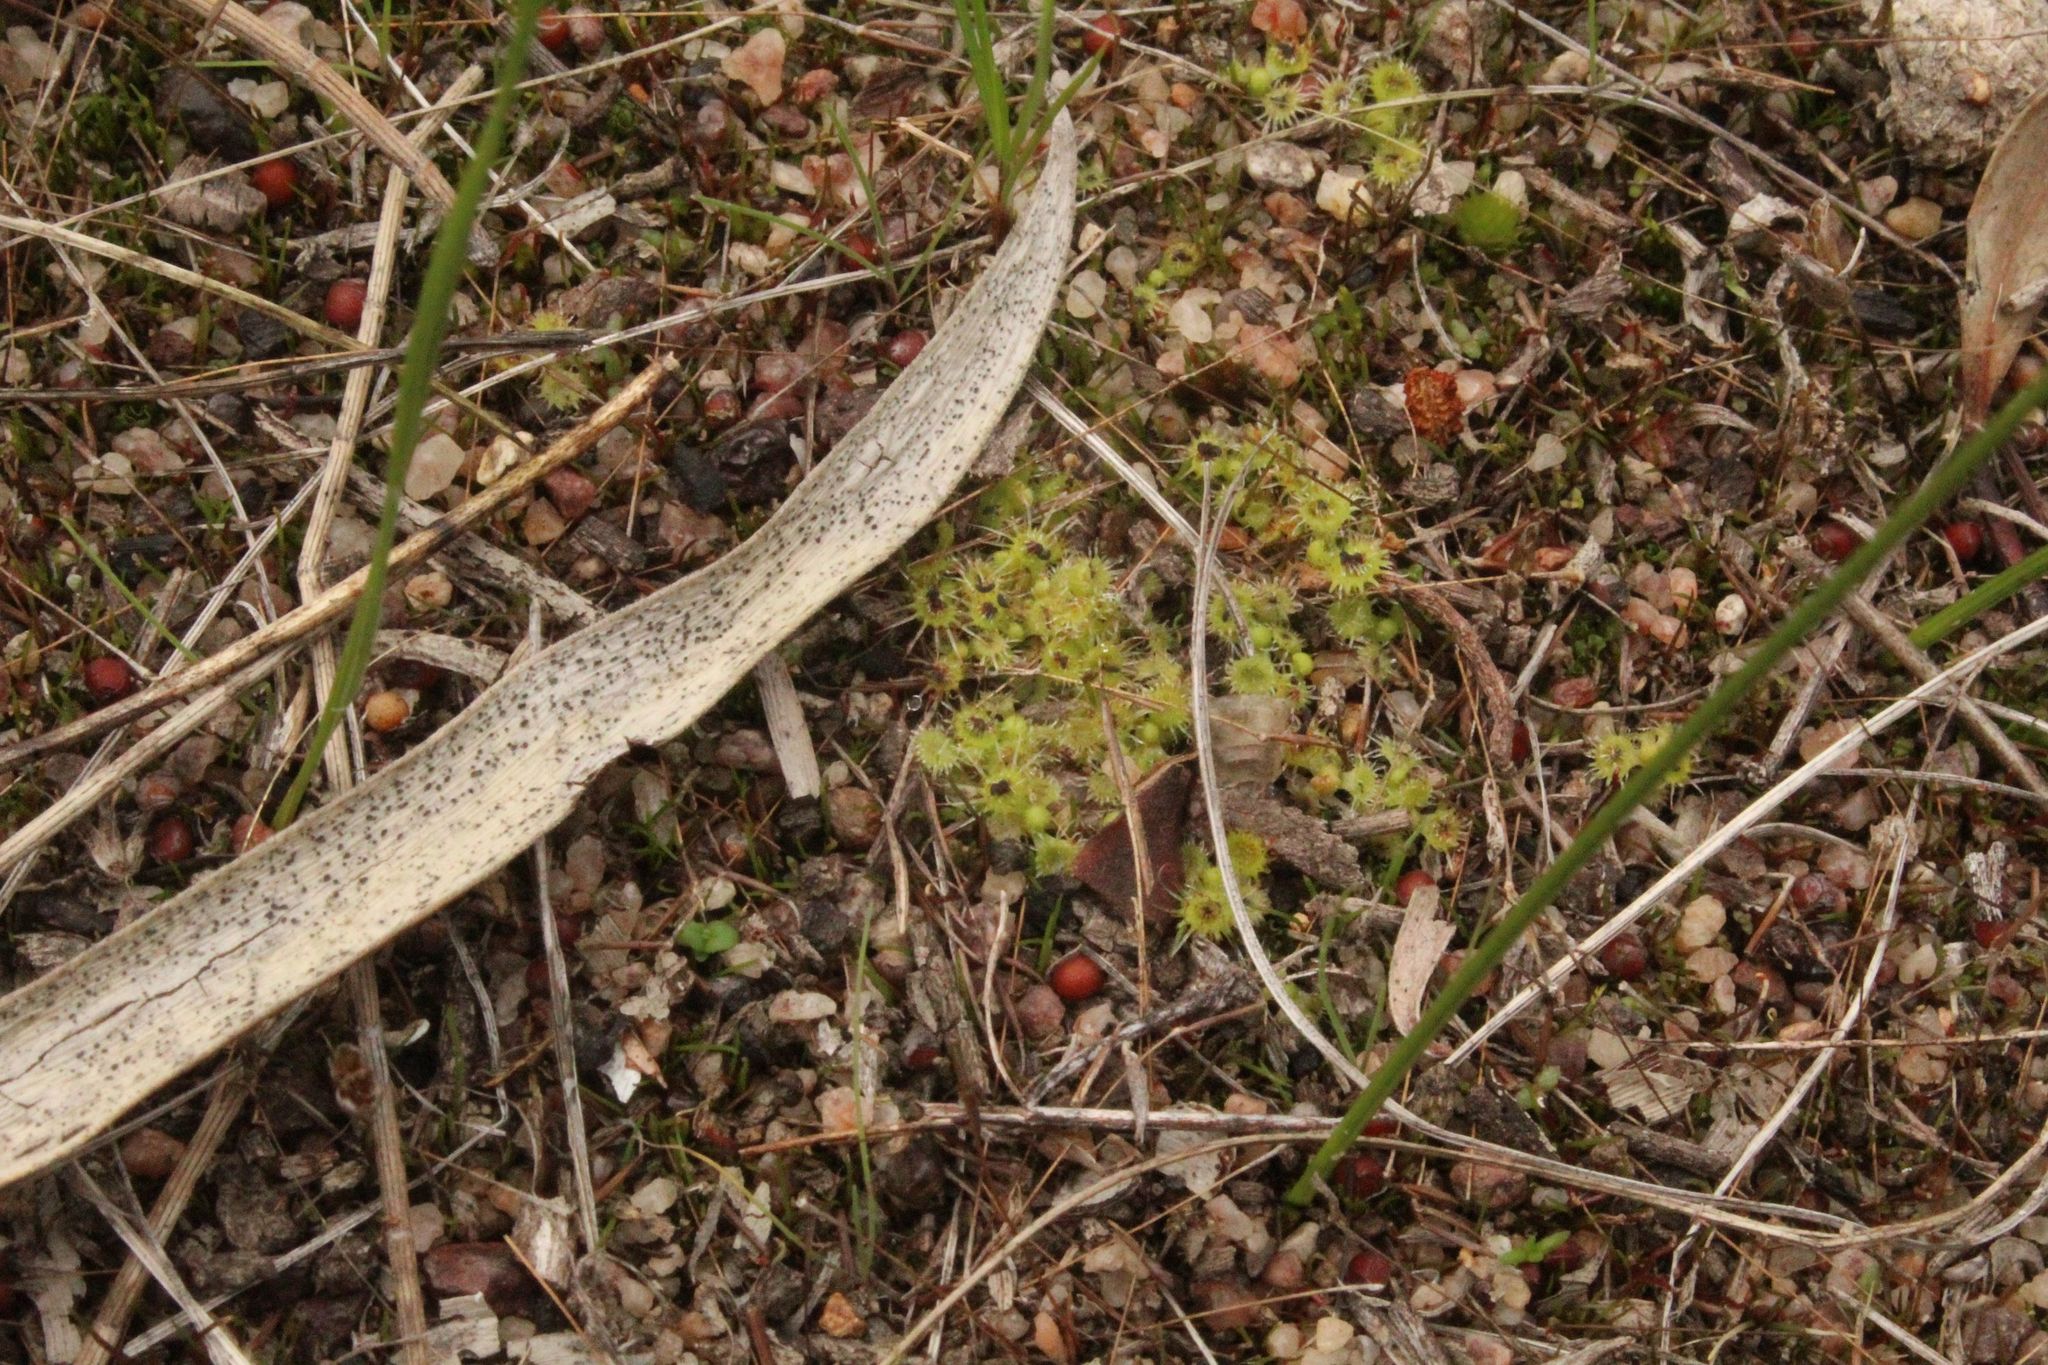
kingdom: Plantae
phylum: Tracheophyta
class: Magnoliopsida
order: Caryophyllales
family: Droseraceae
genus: Drosera
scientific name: Drosera glanduligera
